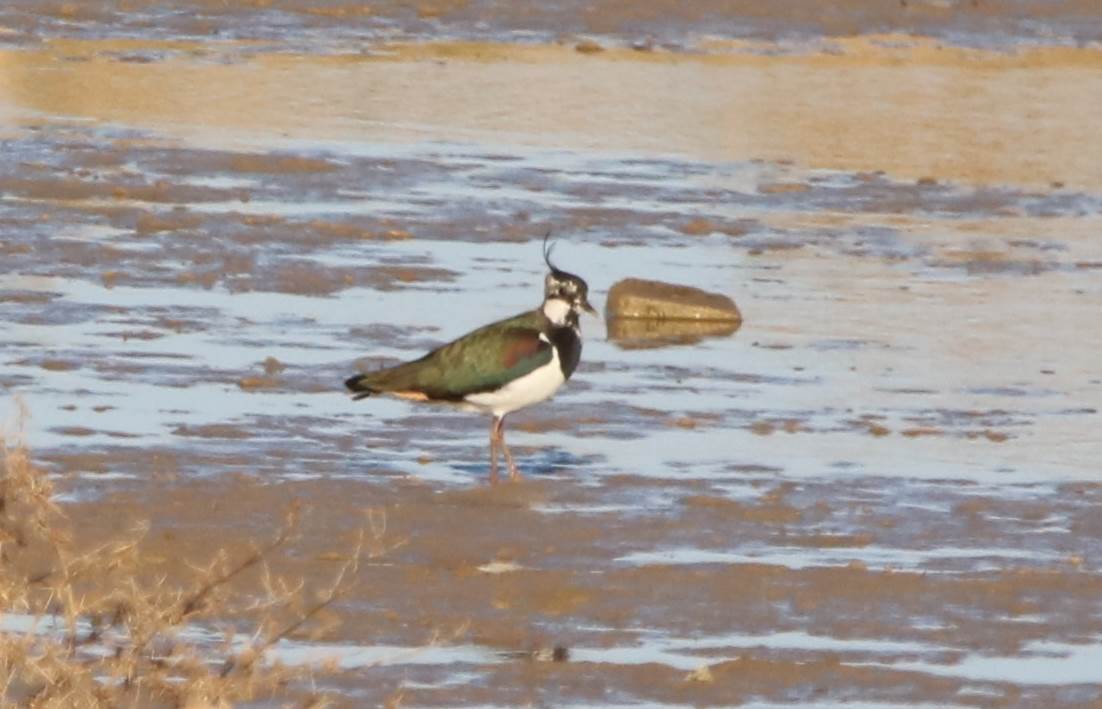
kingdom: Animalia
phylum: Chordata
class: Aves
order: Charadriiformes
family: Charadriidae
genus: Vanellus
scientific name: Vanellus vanellus
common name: Northern lapwing
